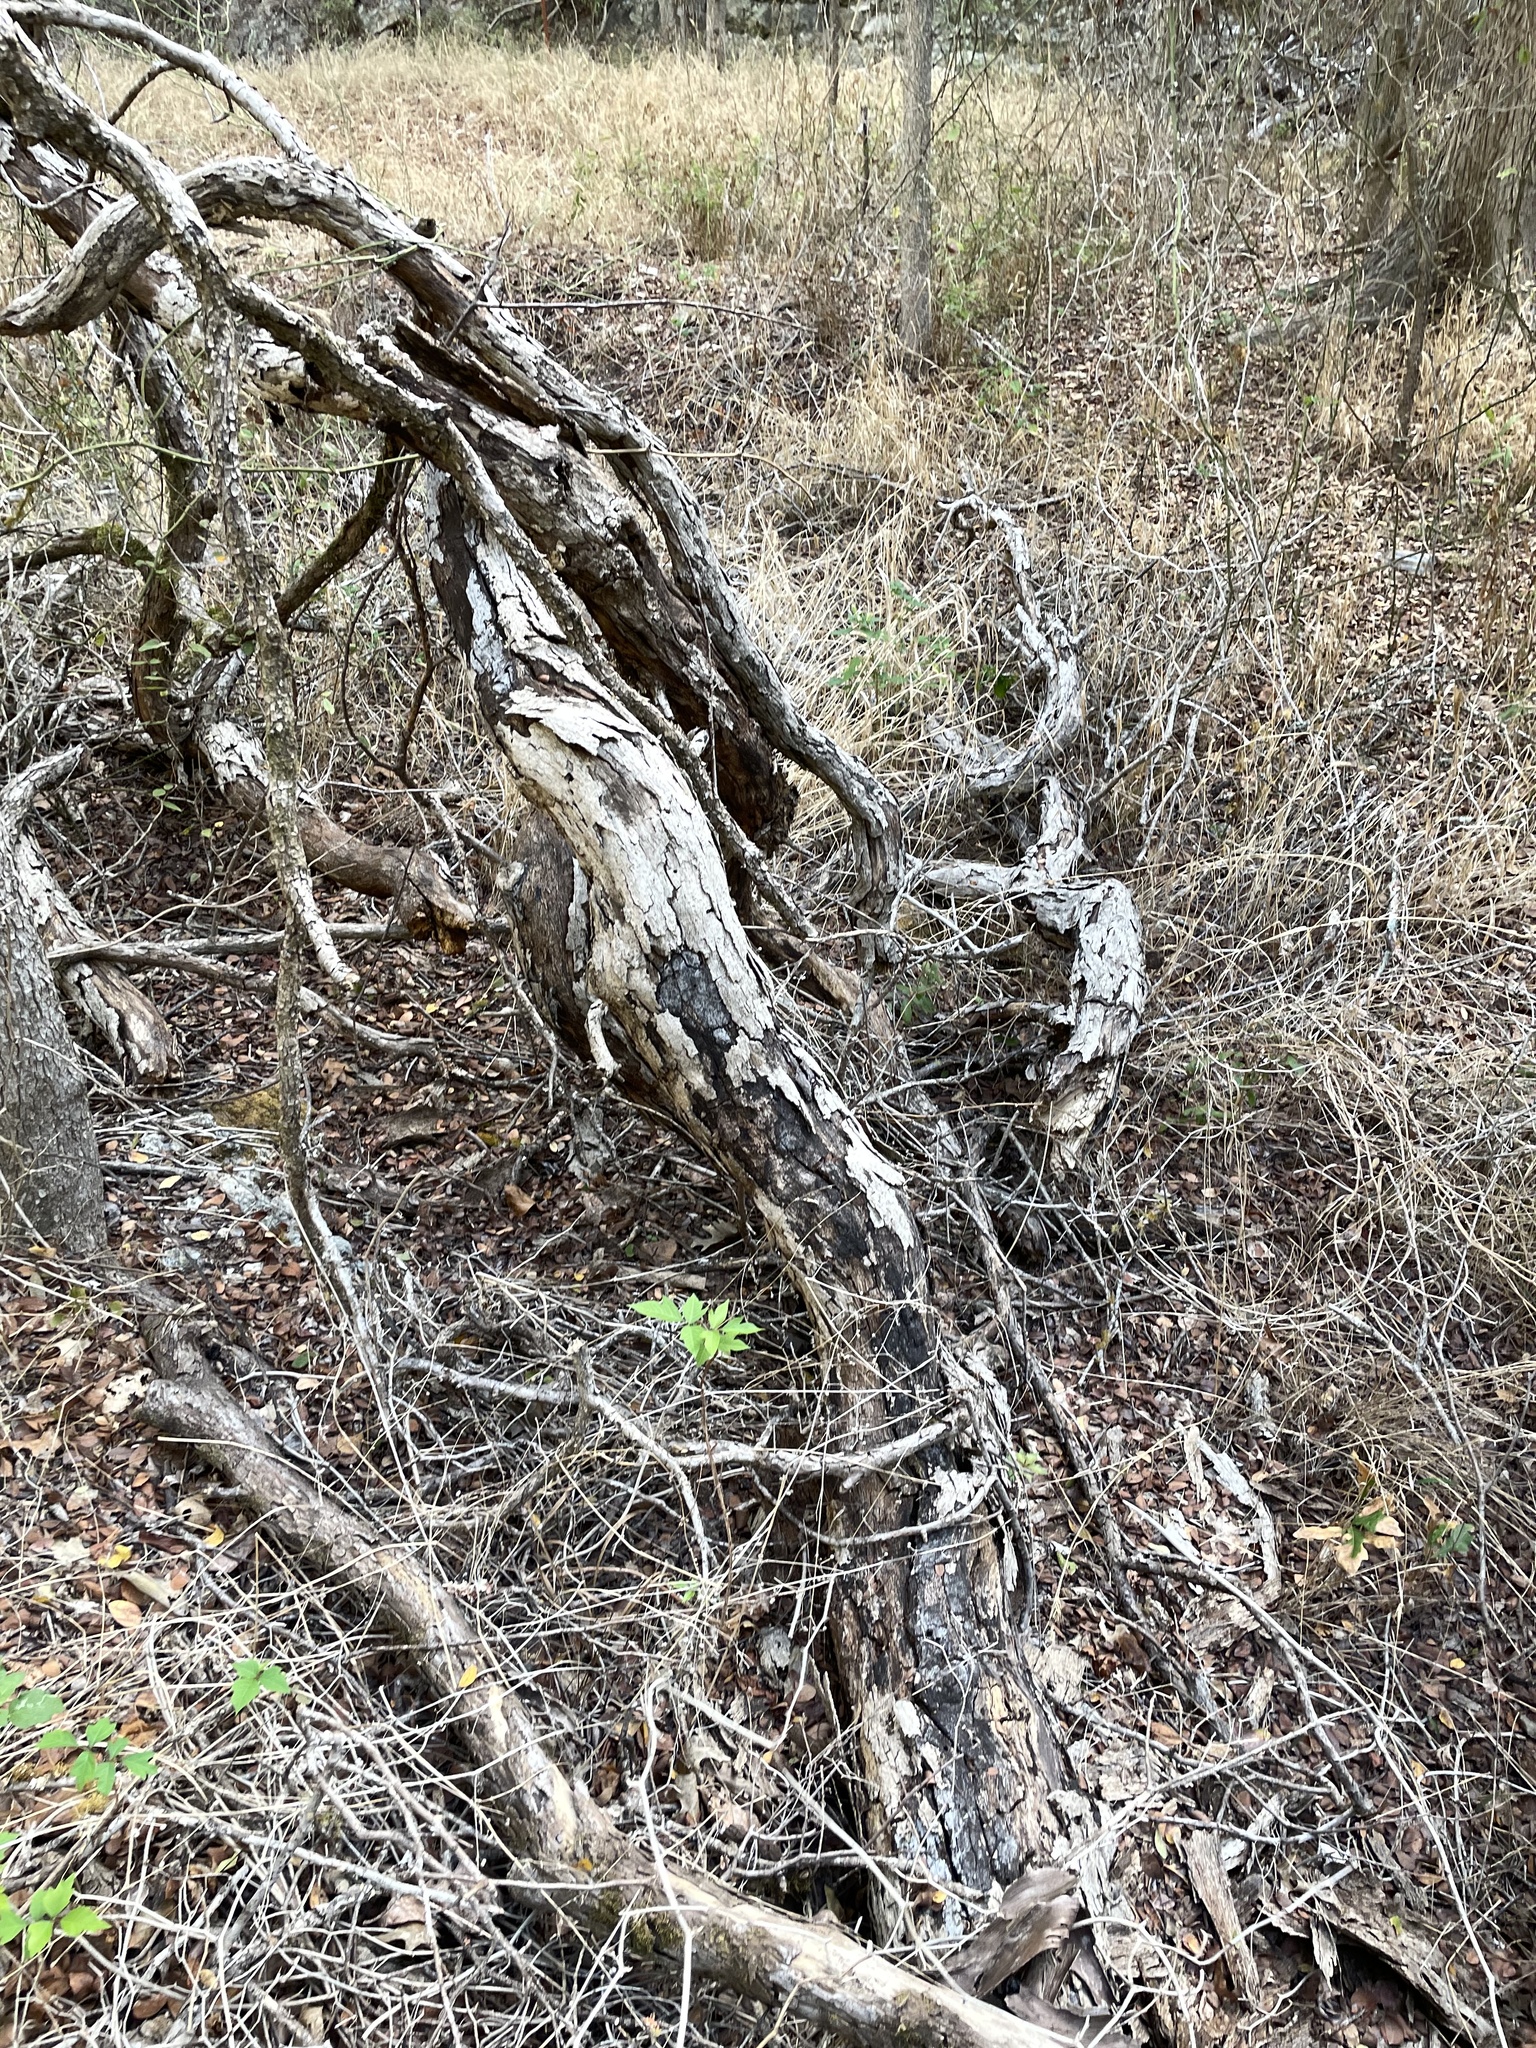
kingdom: Plantae
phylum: Tracheophyta
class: Magnoliopsida
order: Fagales
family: Fagaceae
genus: Quercus
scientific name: Quercus sinuata
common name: Durand oak
